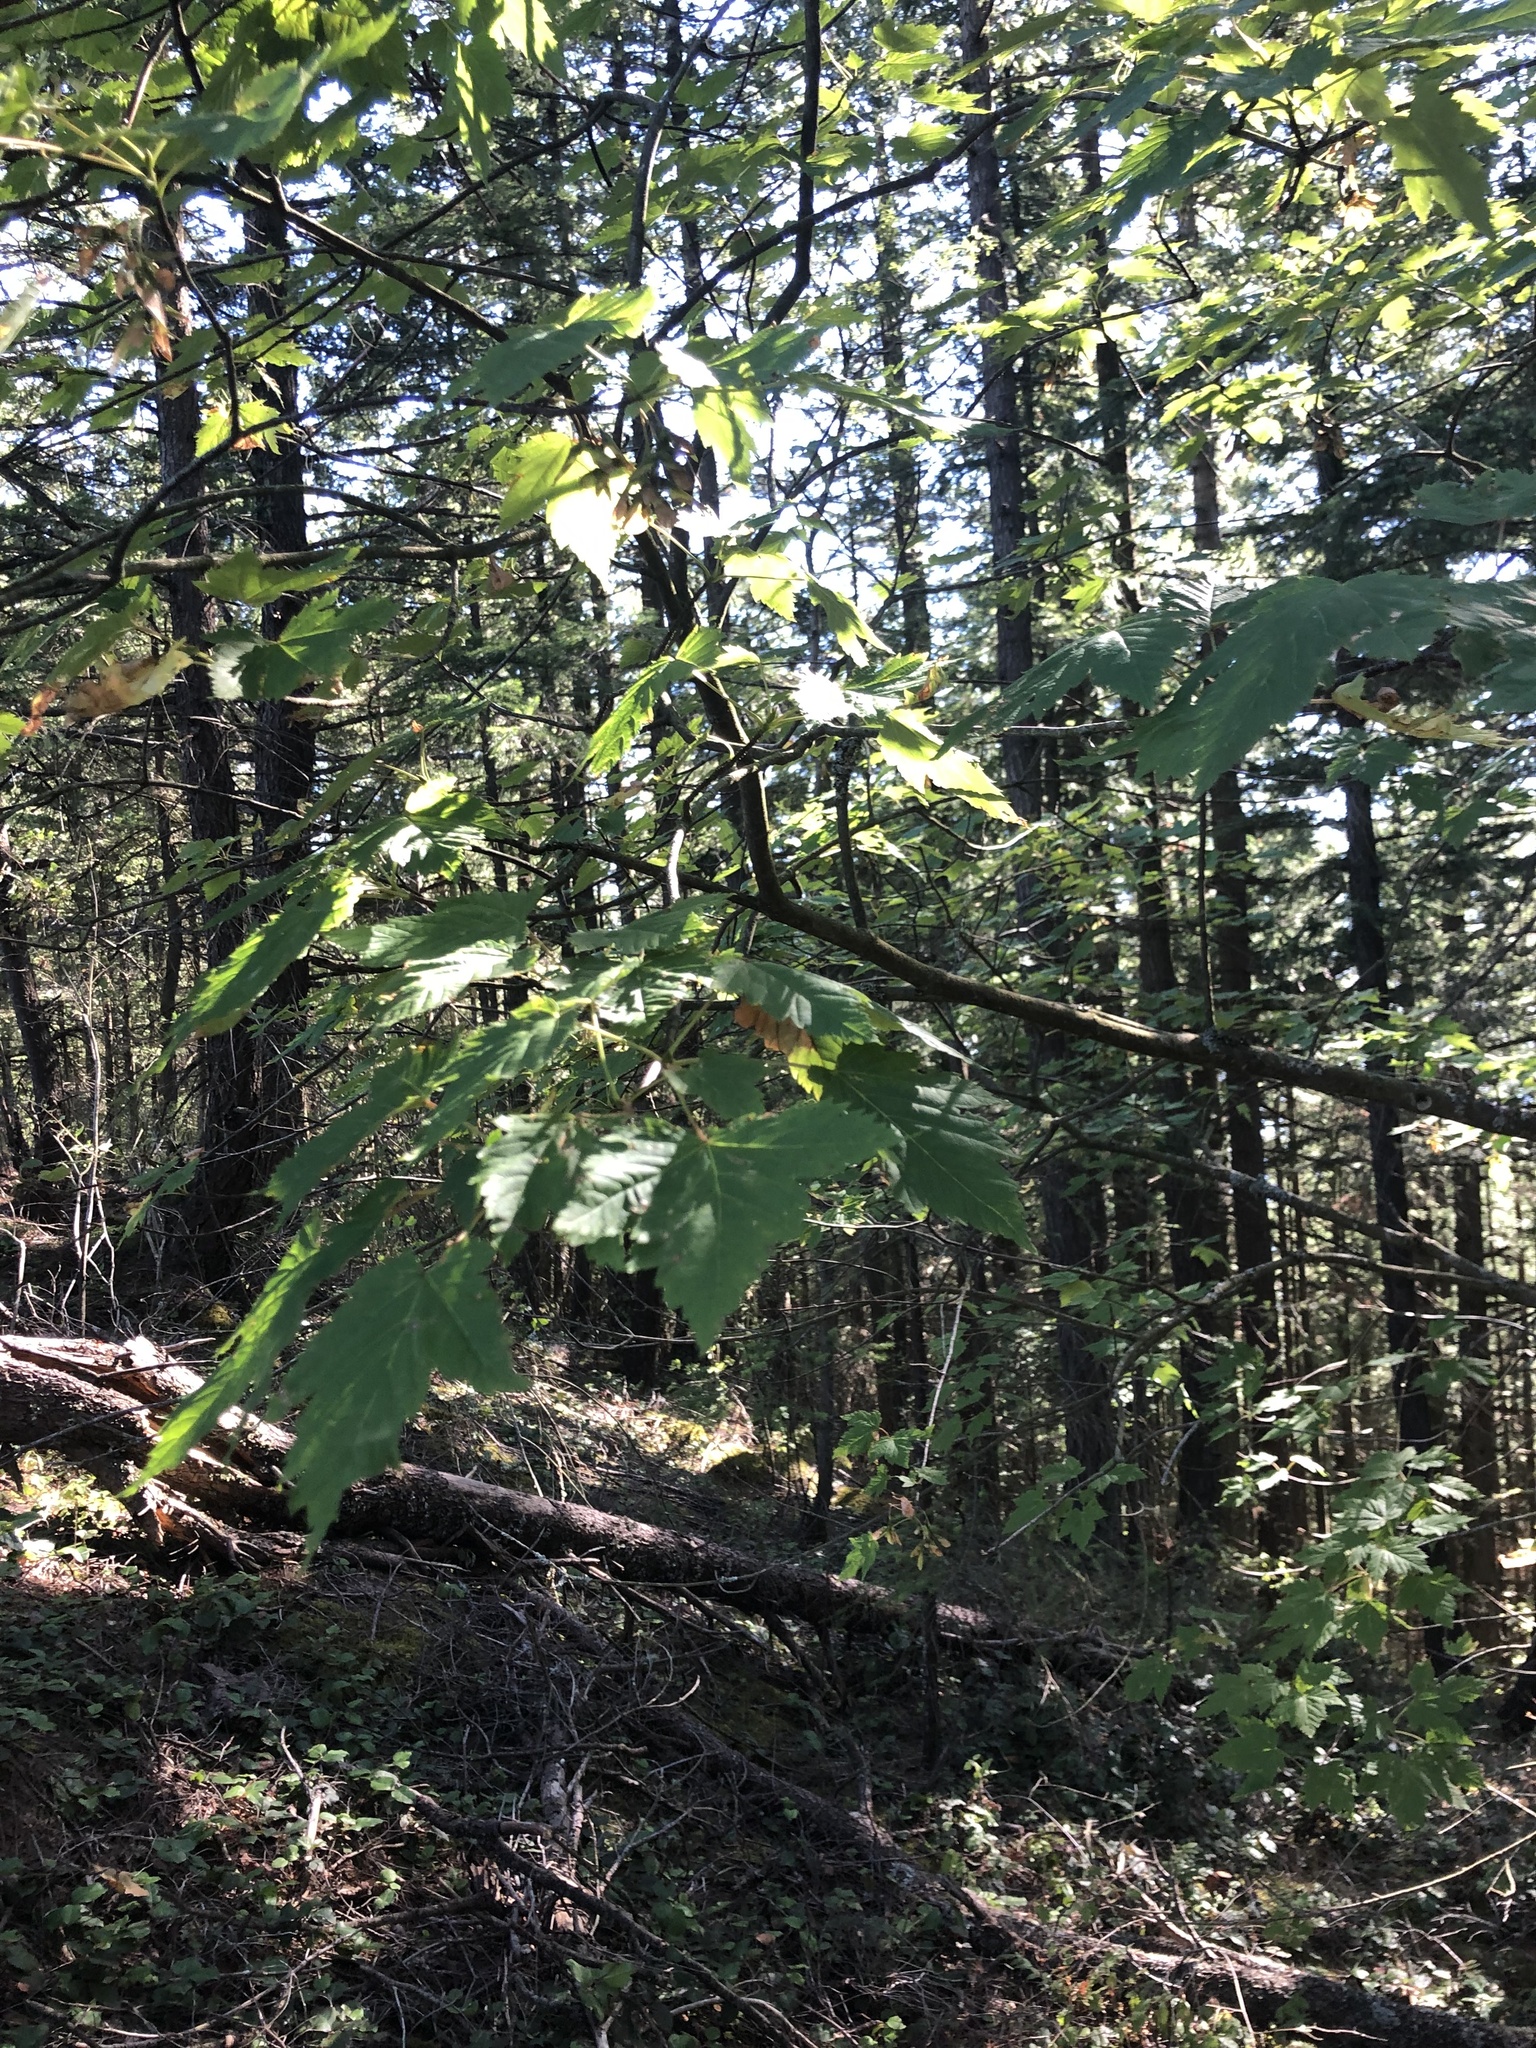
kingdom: Plantae
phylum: Tracheophyta
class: Magnoliopsida
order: Sapindales
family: Sapindaceae
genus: Acer
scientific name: Acer glabrum
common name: Rocky mountain maple
